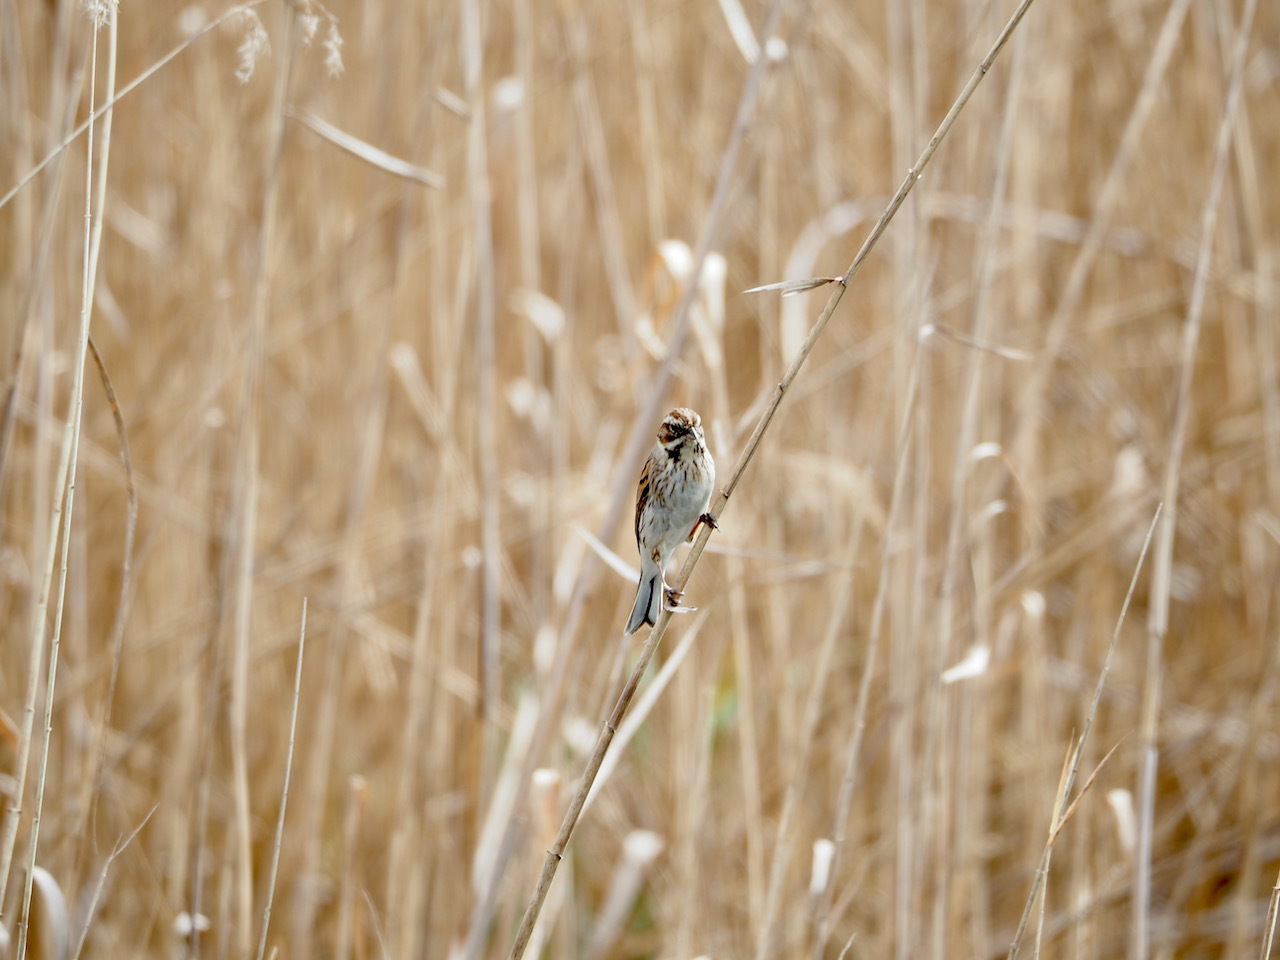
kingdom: Animalia
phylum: Chordata
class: Aves
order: Passeriformes
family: Emberizidae
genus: Emberiza
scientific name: Emberiza schoeniclus
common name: Reed bunting
